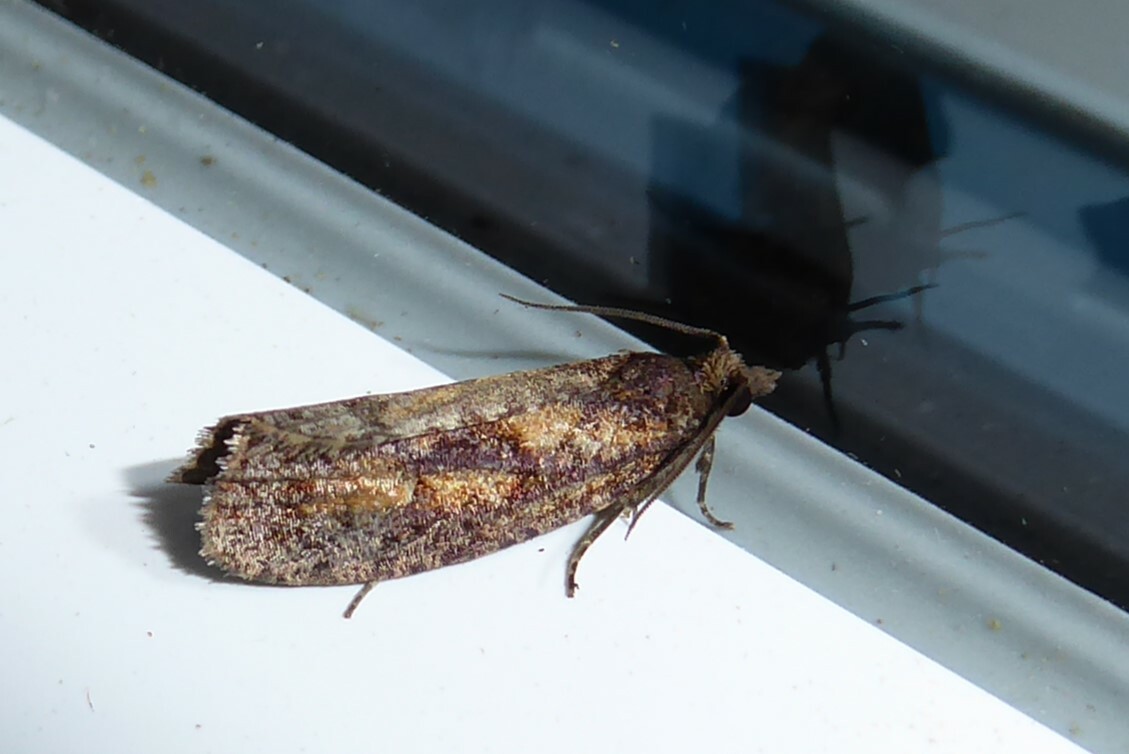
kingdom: Animalia
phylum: Arthropoda
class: Insecta
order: Lepidoptera
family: Tortricidae
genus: Cryptaspasma
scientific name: Cryptaspasma querula
